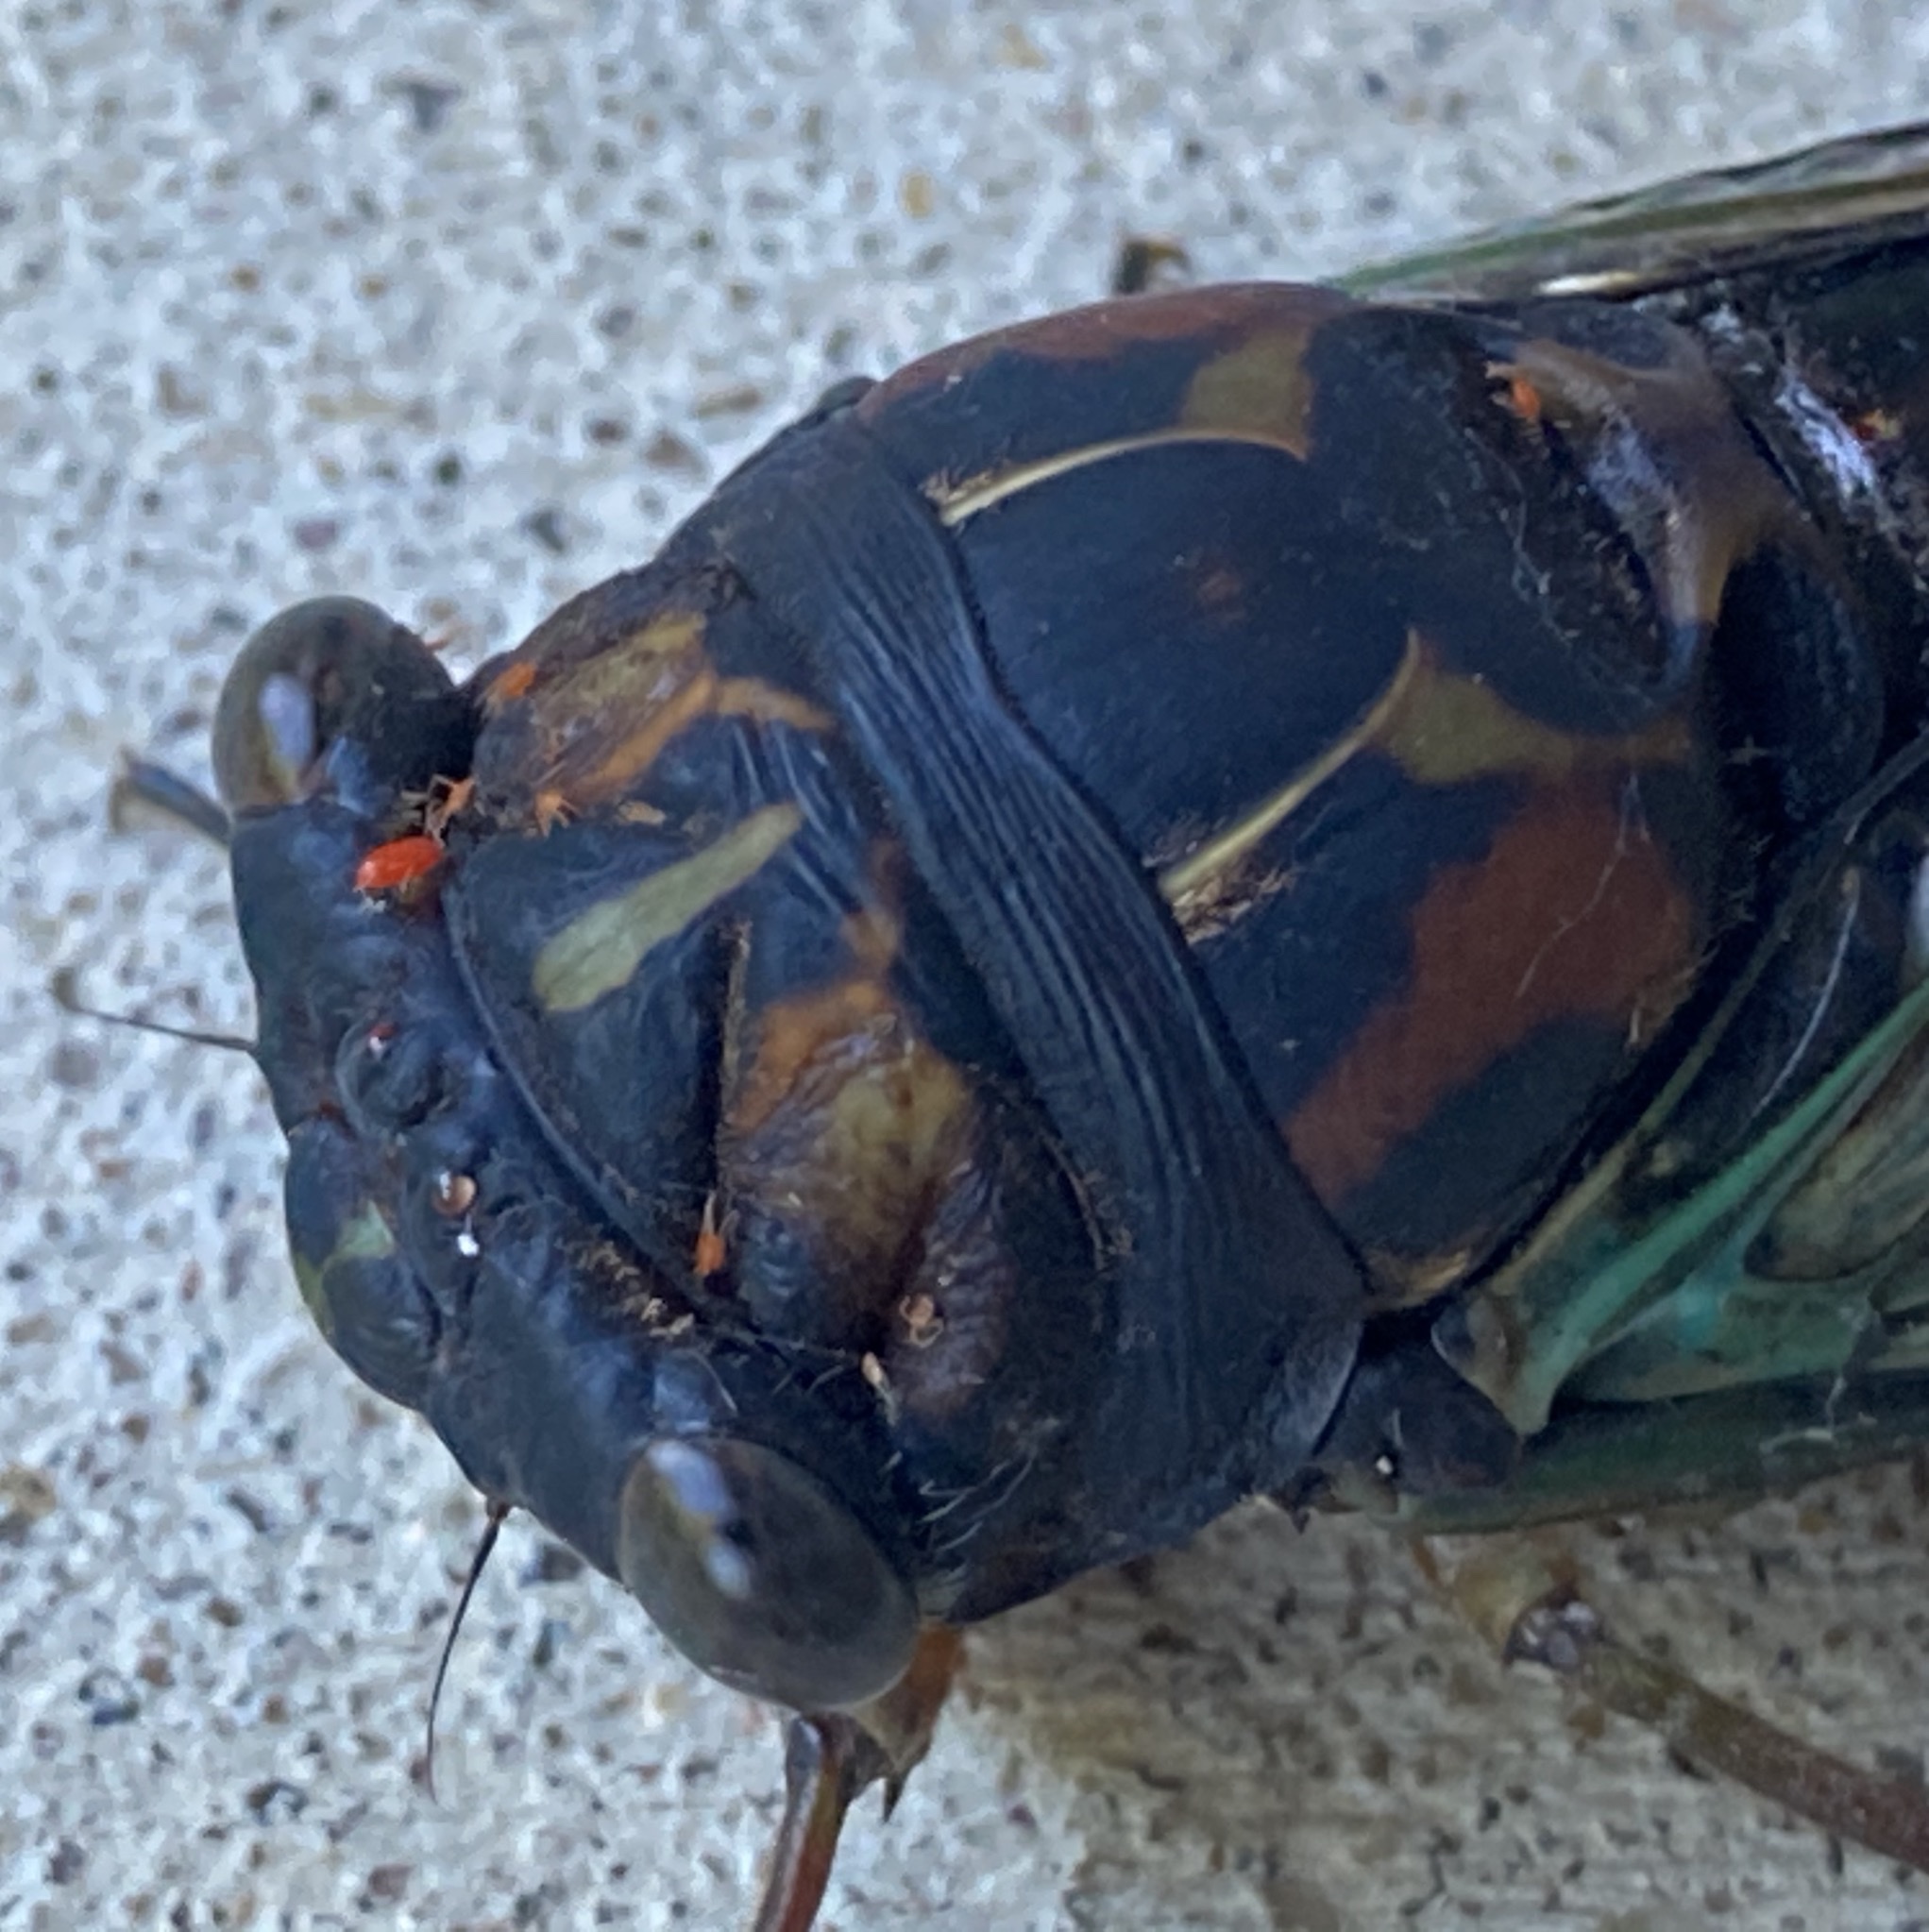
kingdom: Animalia
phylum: Arthropoda
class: Insecta
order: Hemiptera
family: Cicadidae
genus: Neotibicen
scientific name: Neotibicen lyricen
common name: Lyric cicada
